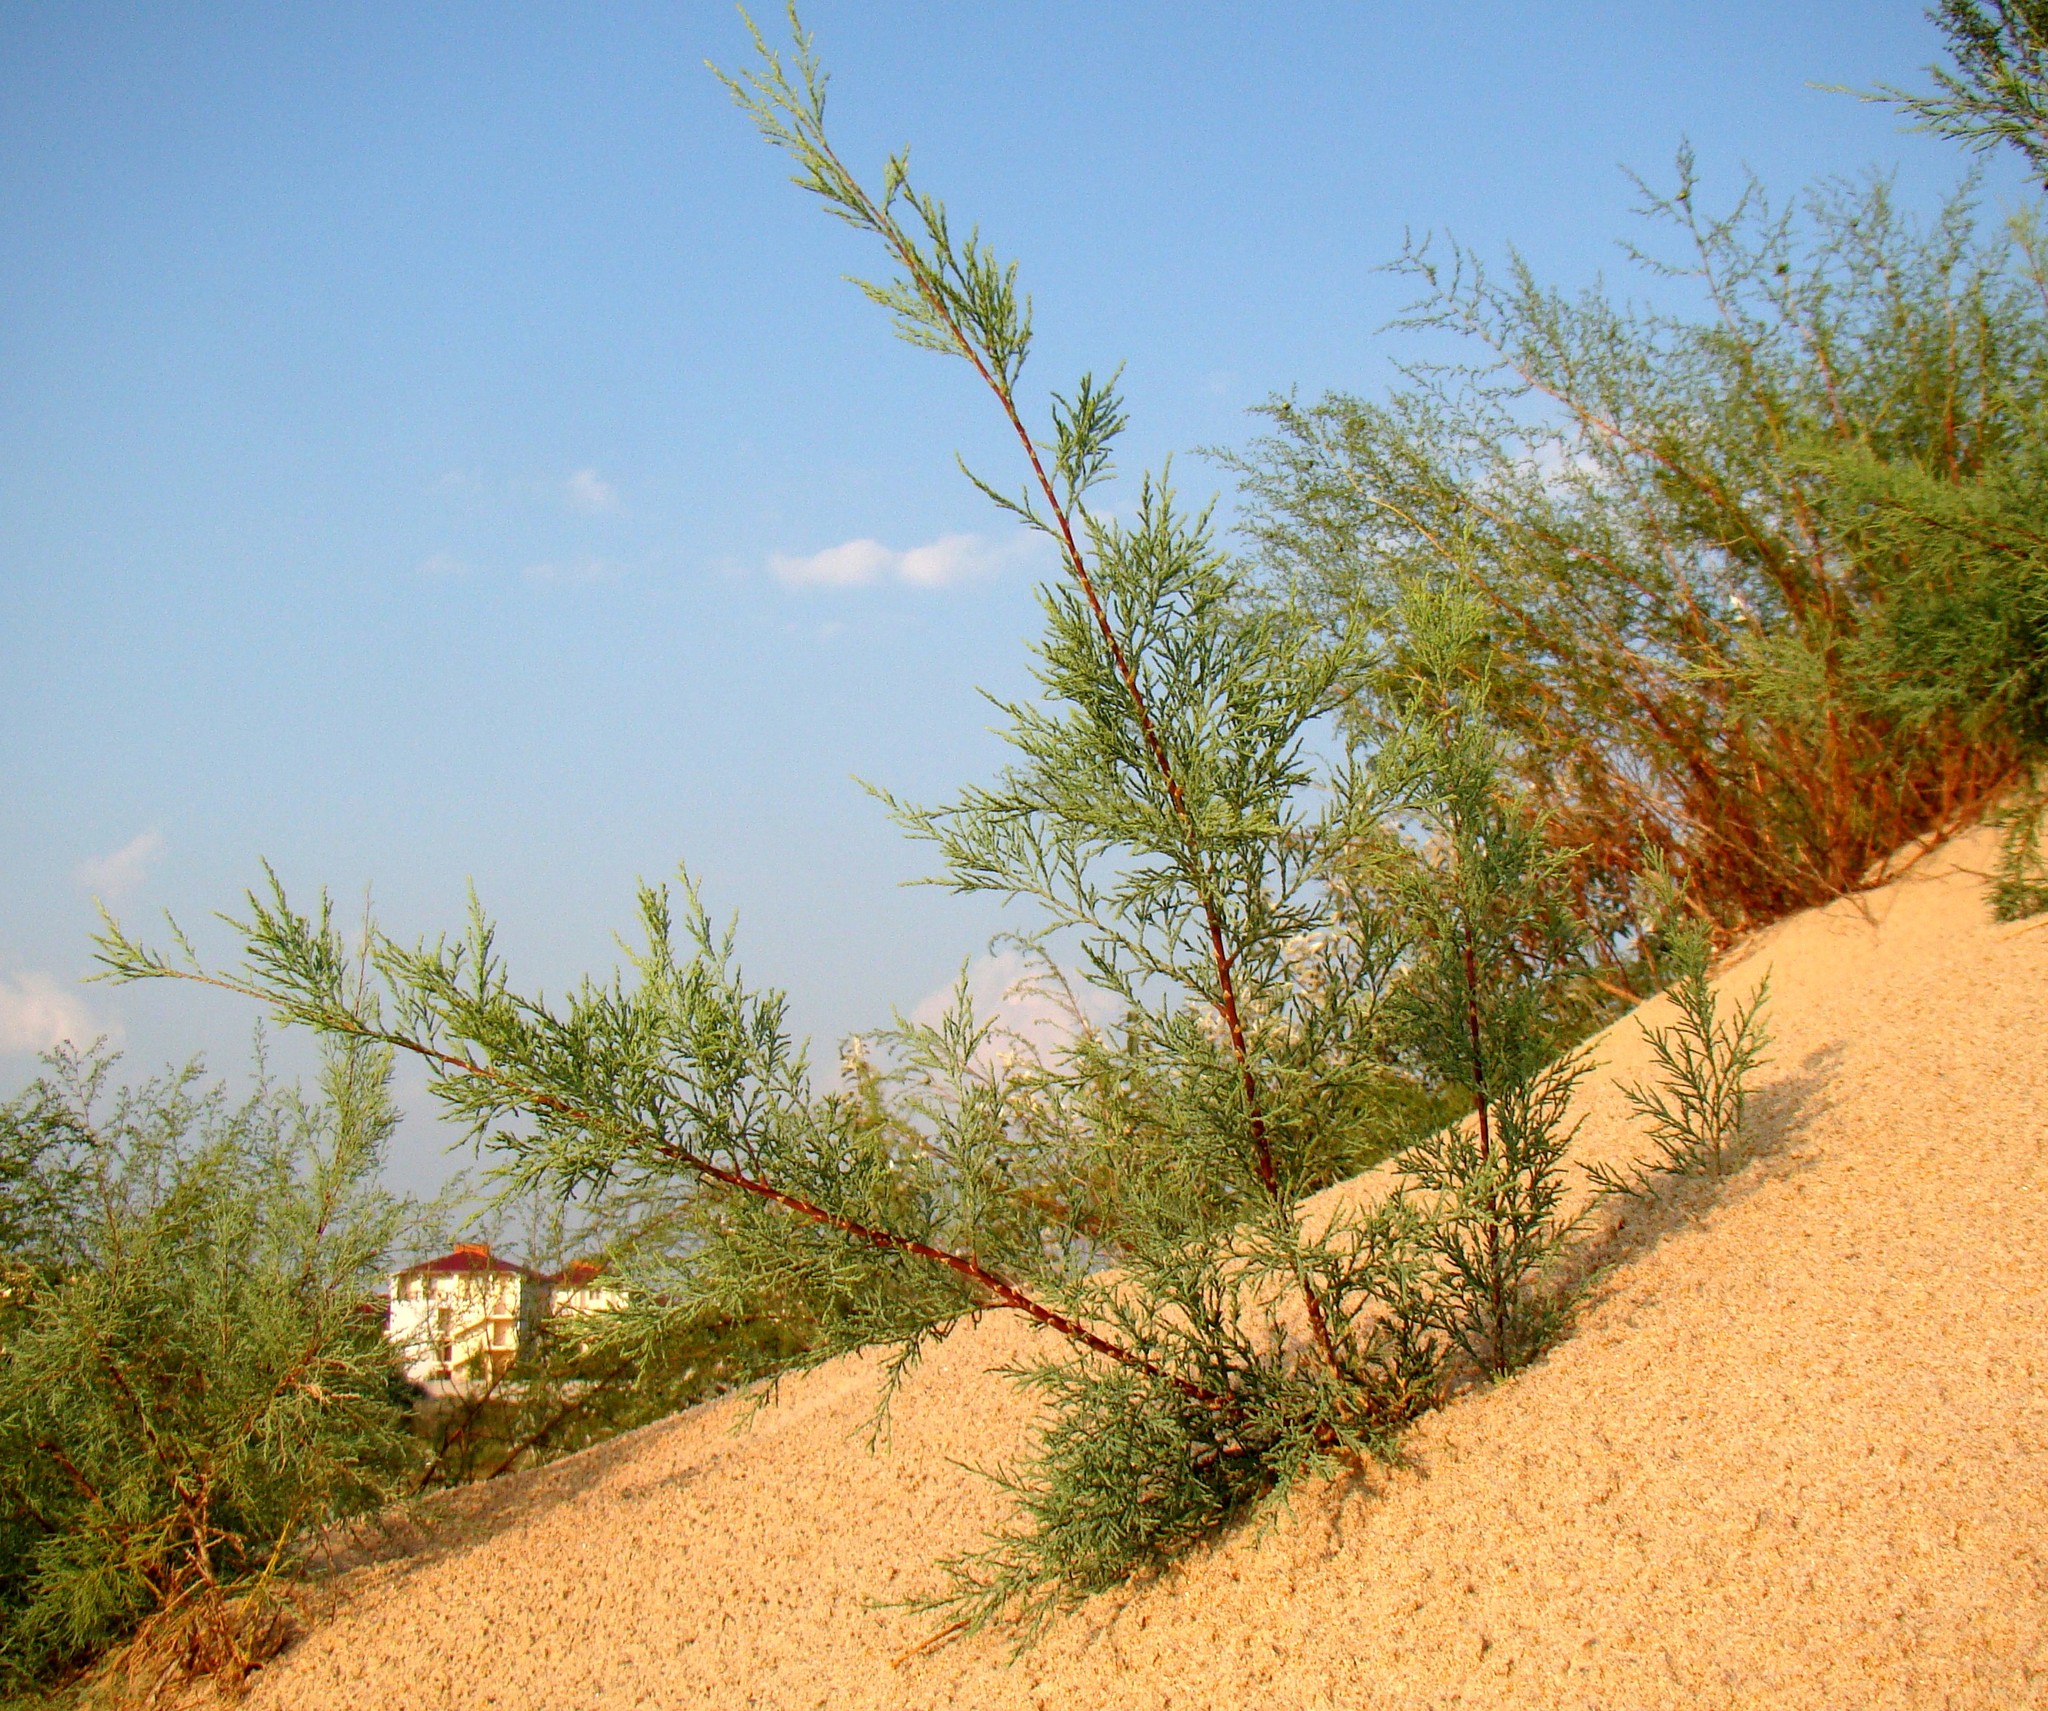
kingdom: Plantae
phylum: Tracheophyta
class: Magnoliopsida
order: Caryophyllales
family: Tamaricaceae
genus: Tamarix
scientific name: Tamarix ramosissima
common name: Pink tamarisk
